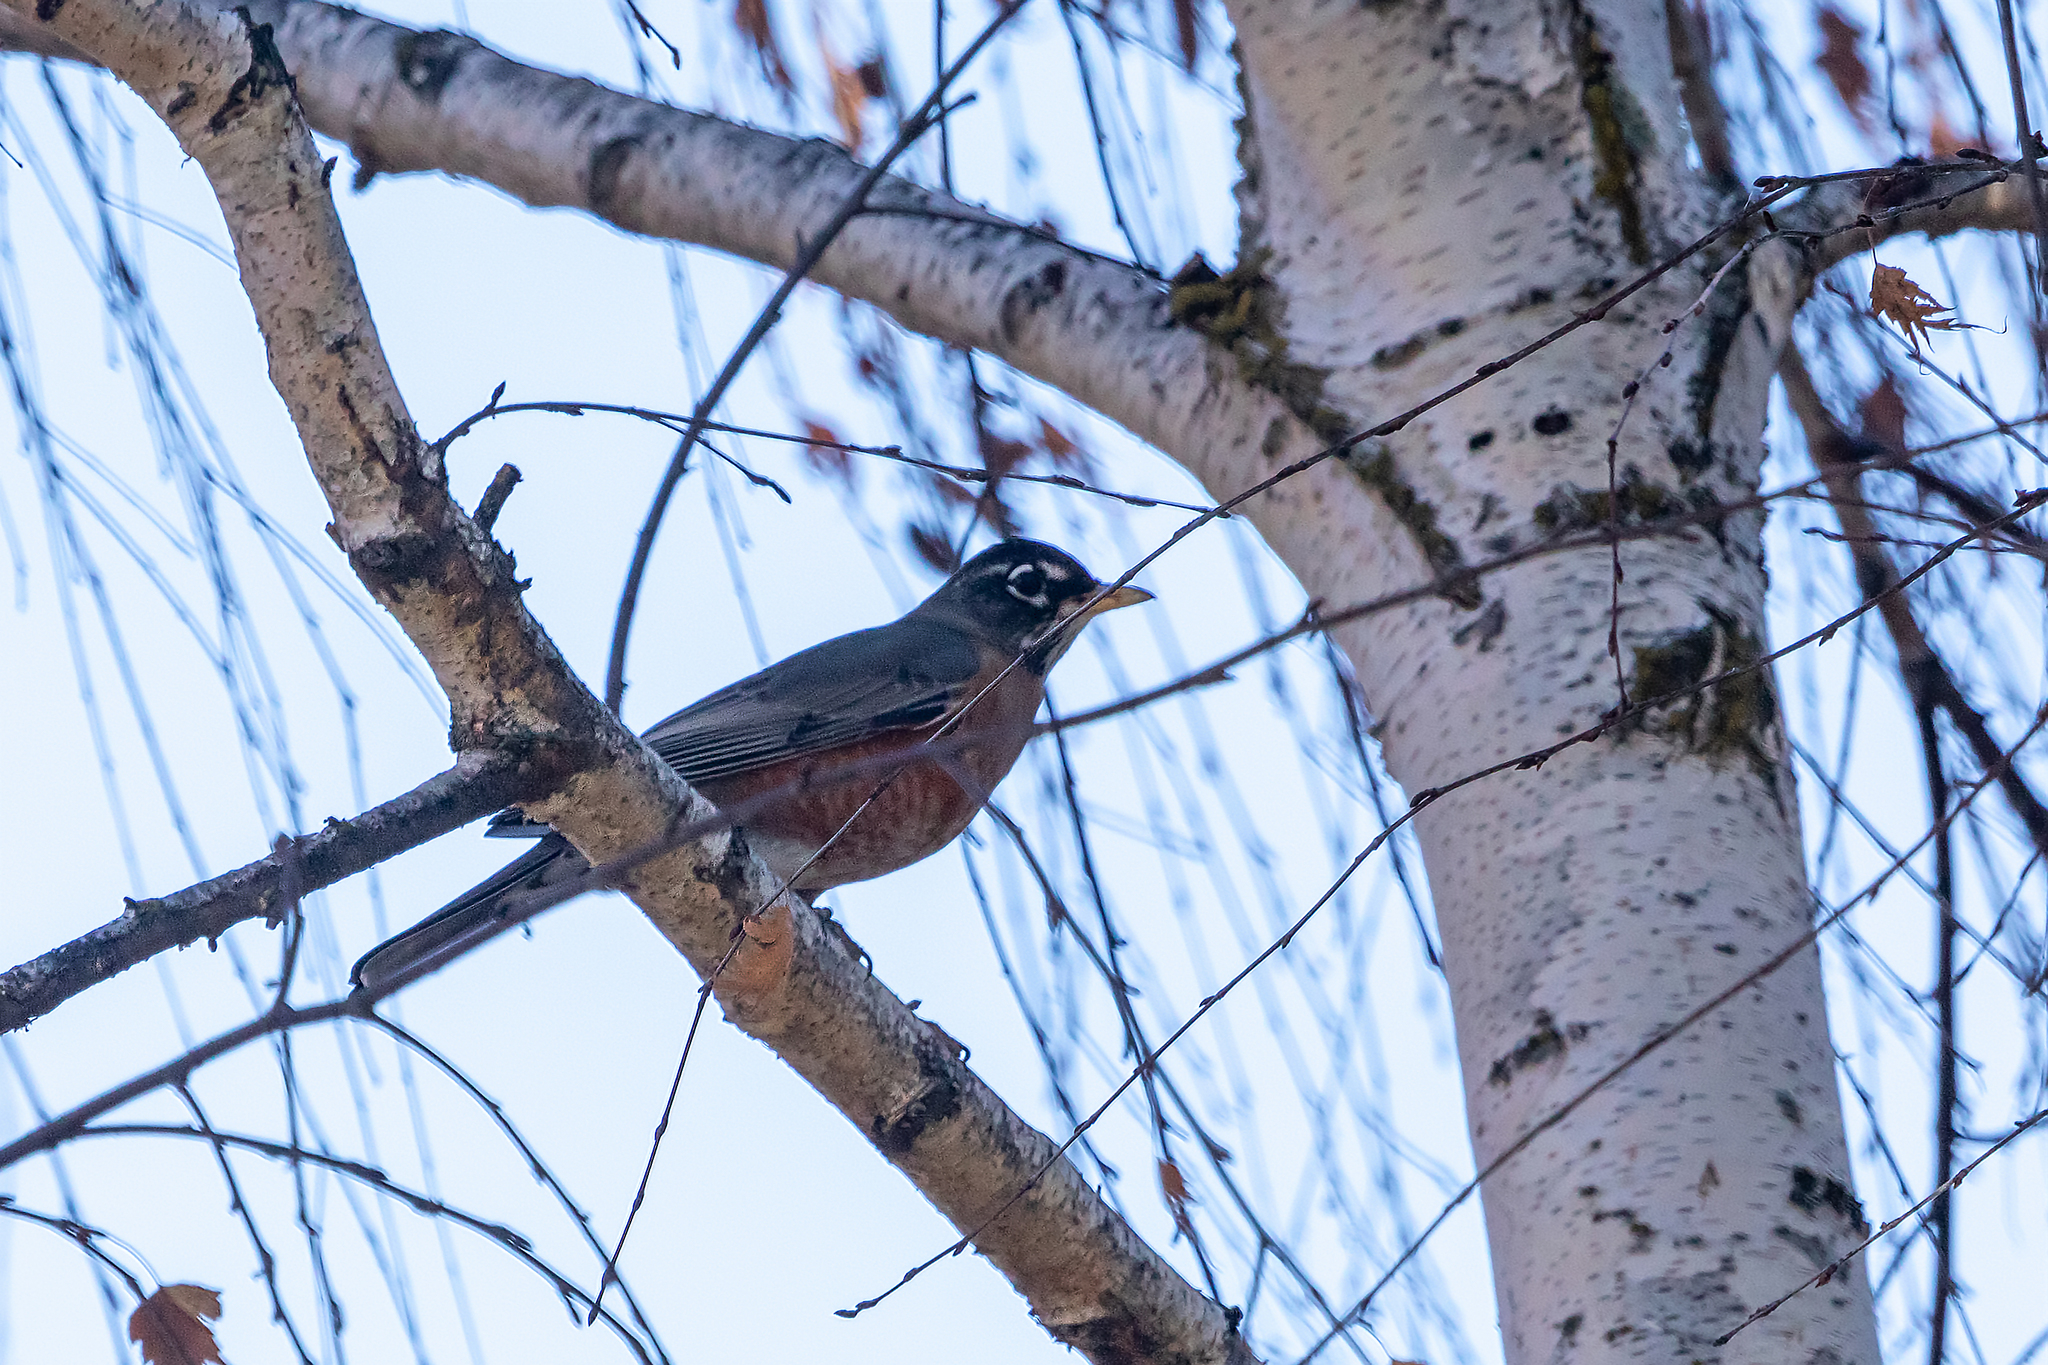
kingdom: Animalia
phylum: Chordata
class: Aves
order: Passeriformes
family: Turdidae
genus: Turdus
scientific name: Turdus migratorius
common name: American robin
